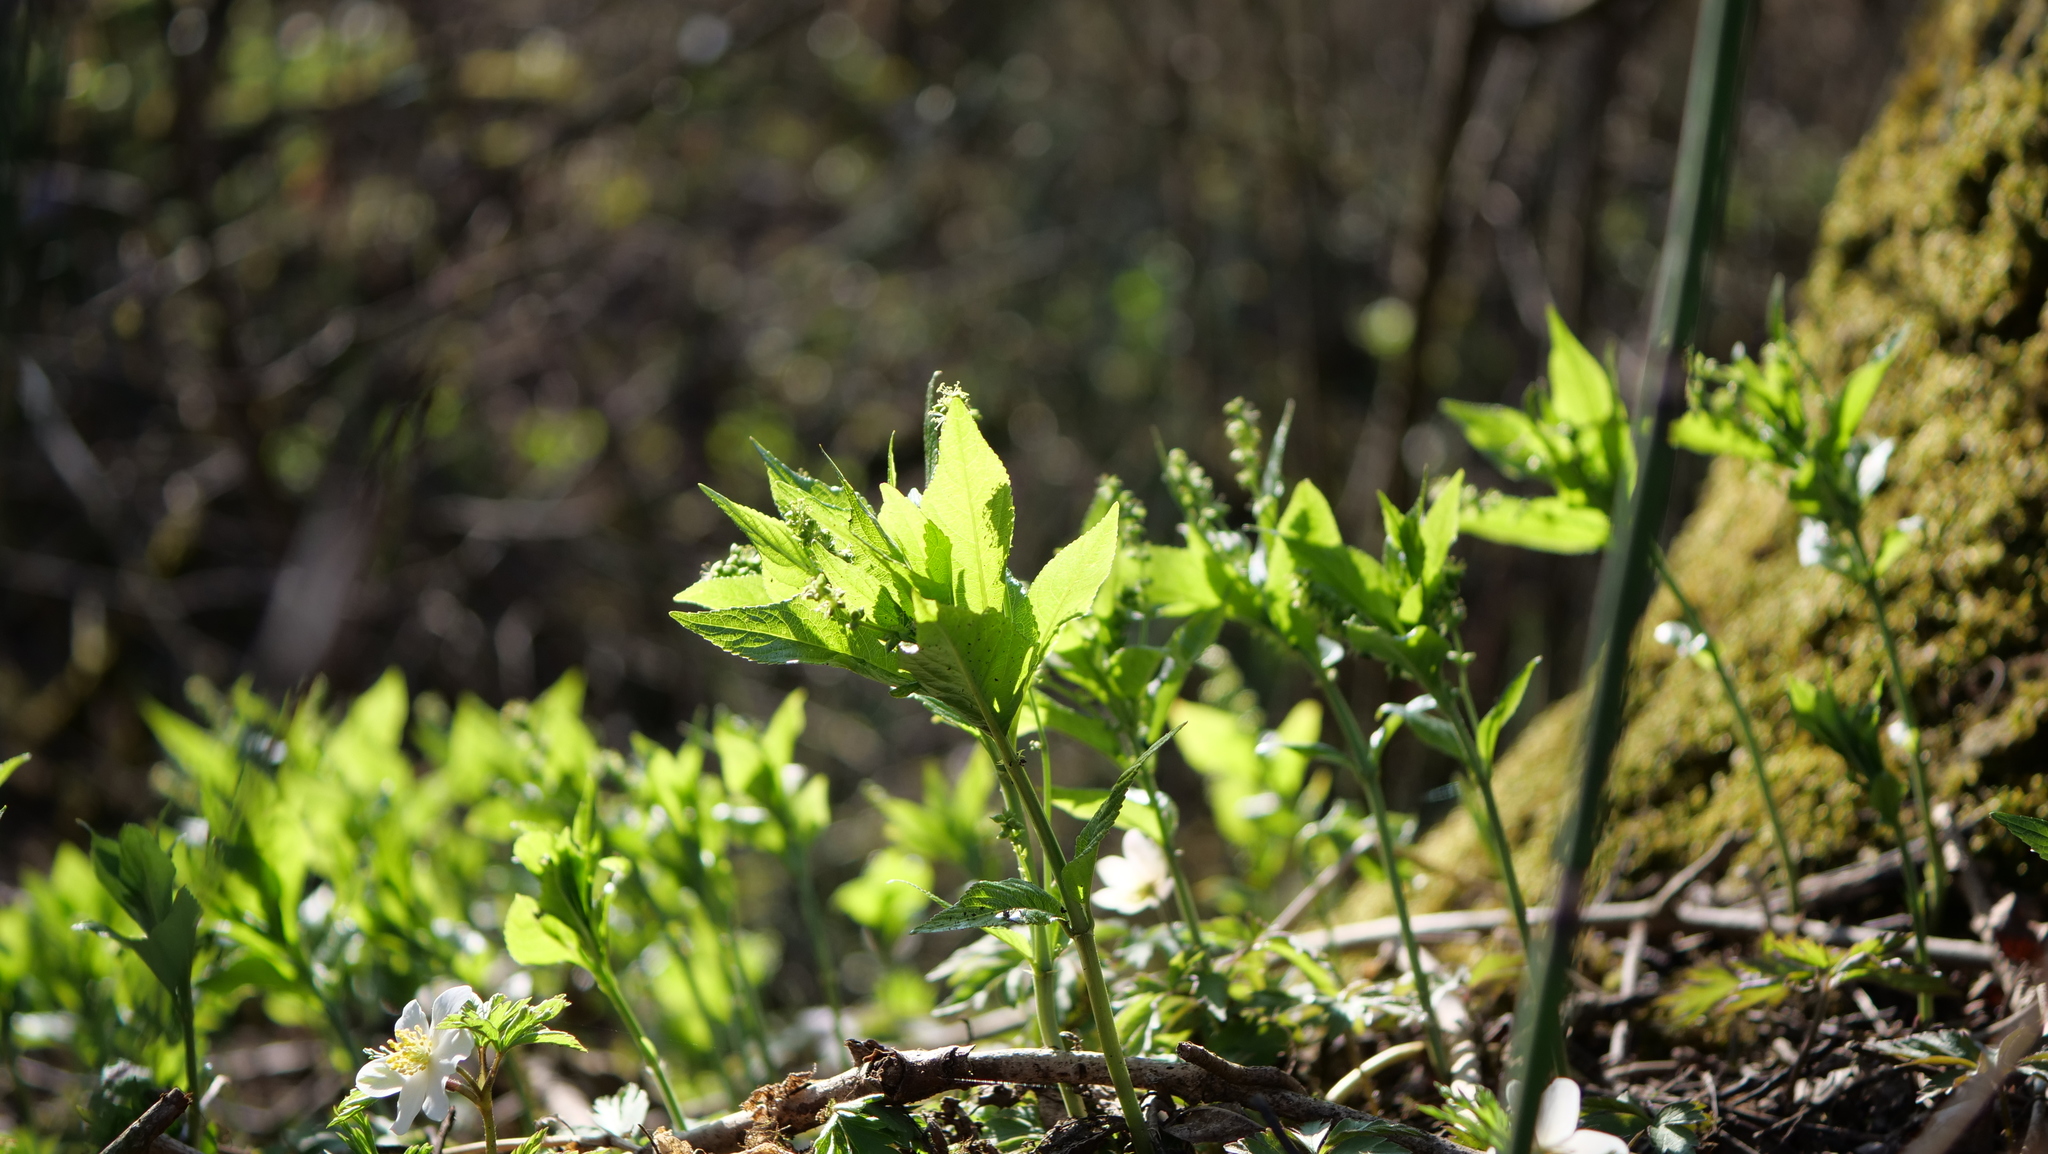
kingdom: Plantae
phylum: Tracheophyta
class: Magnoliopsida
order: Malpighiales
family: Euphorbiaceae
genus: Mercurialis
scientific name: Mercurialis perennis
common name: Dog mercury
